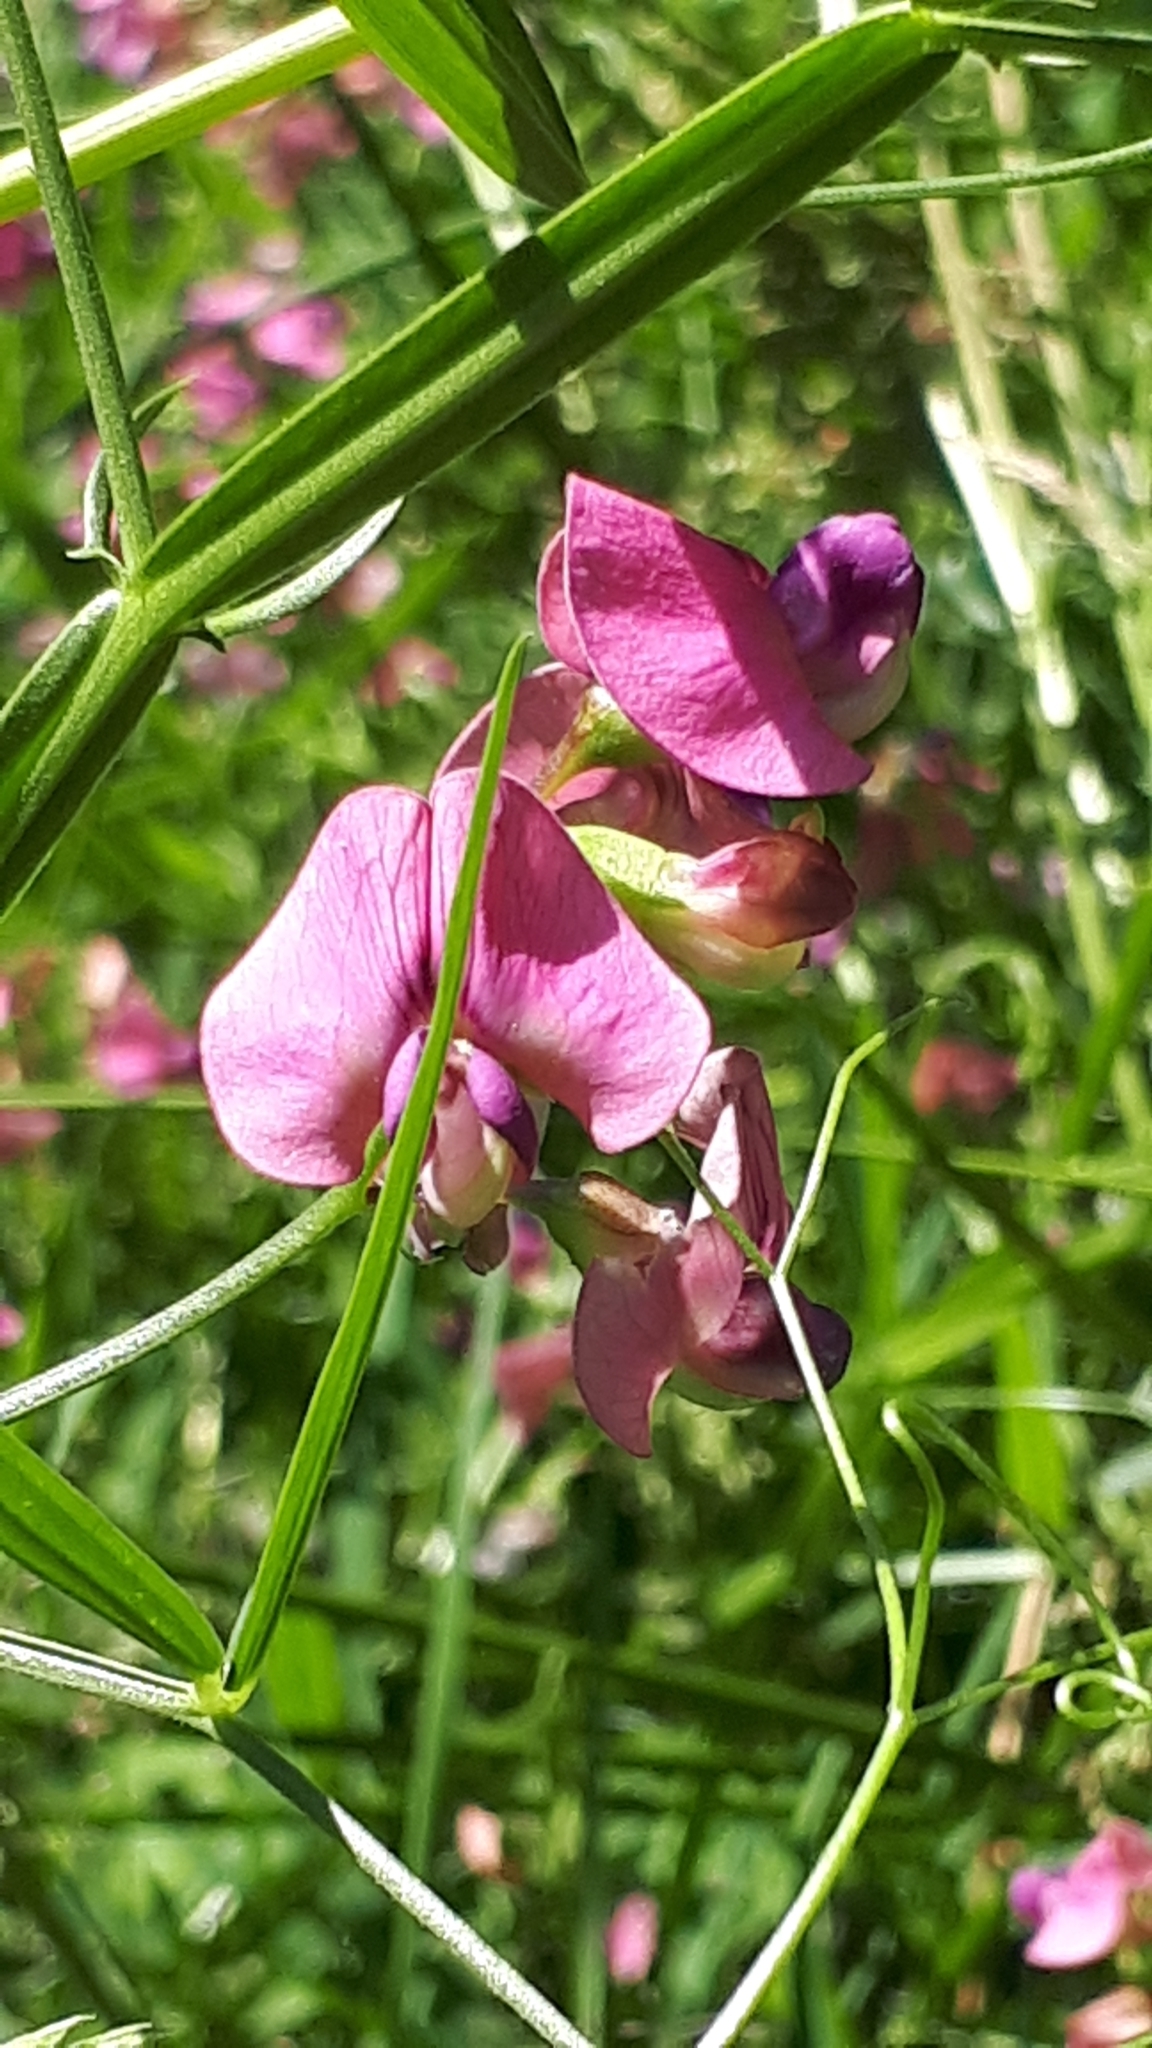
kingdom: Plantae
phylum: Tracheophyta
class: Magnoliopsida
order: Fabales
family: Fabaceae
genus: Lathyrus
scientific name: Lathyrus sylvestris
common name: Flat pea
